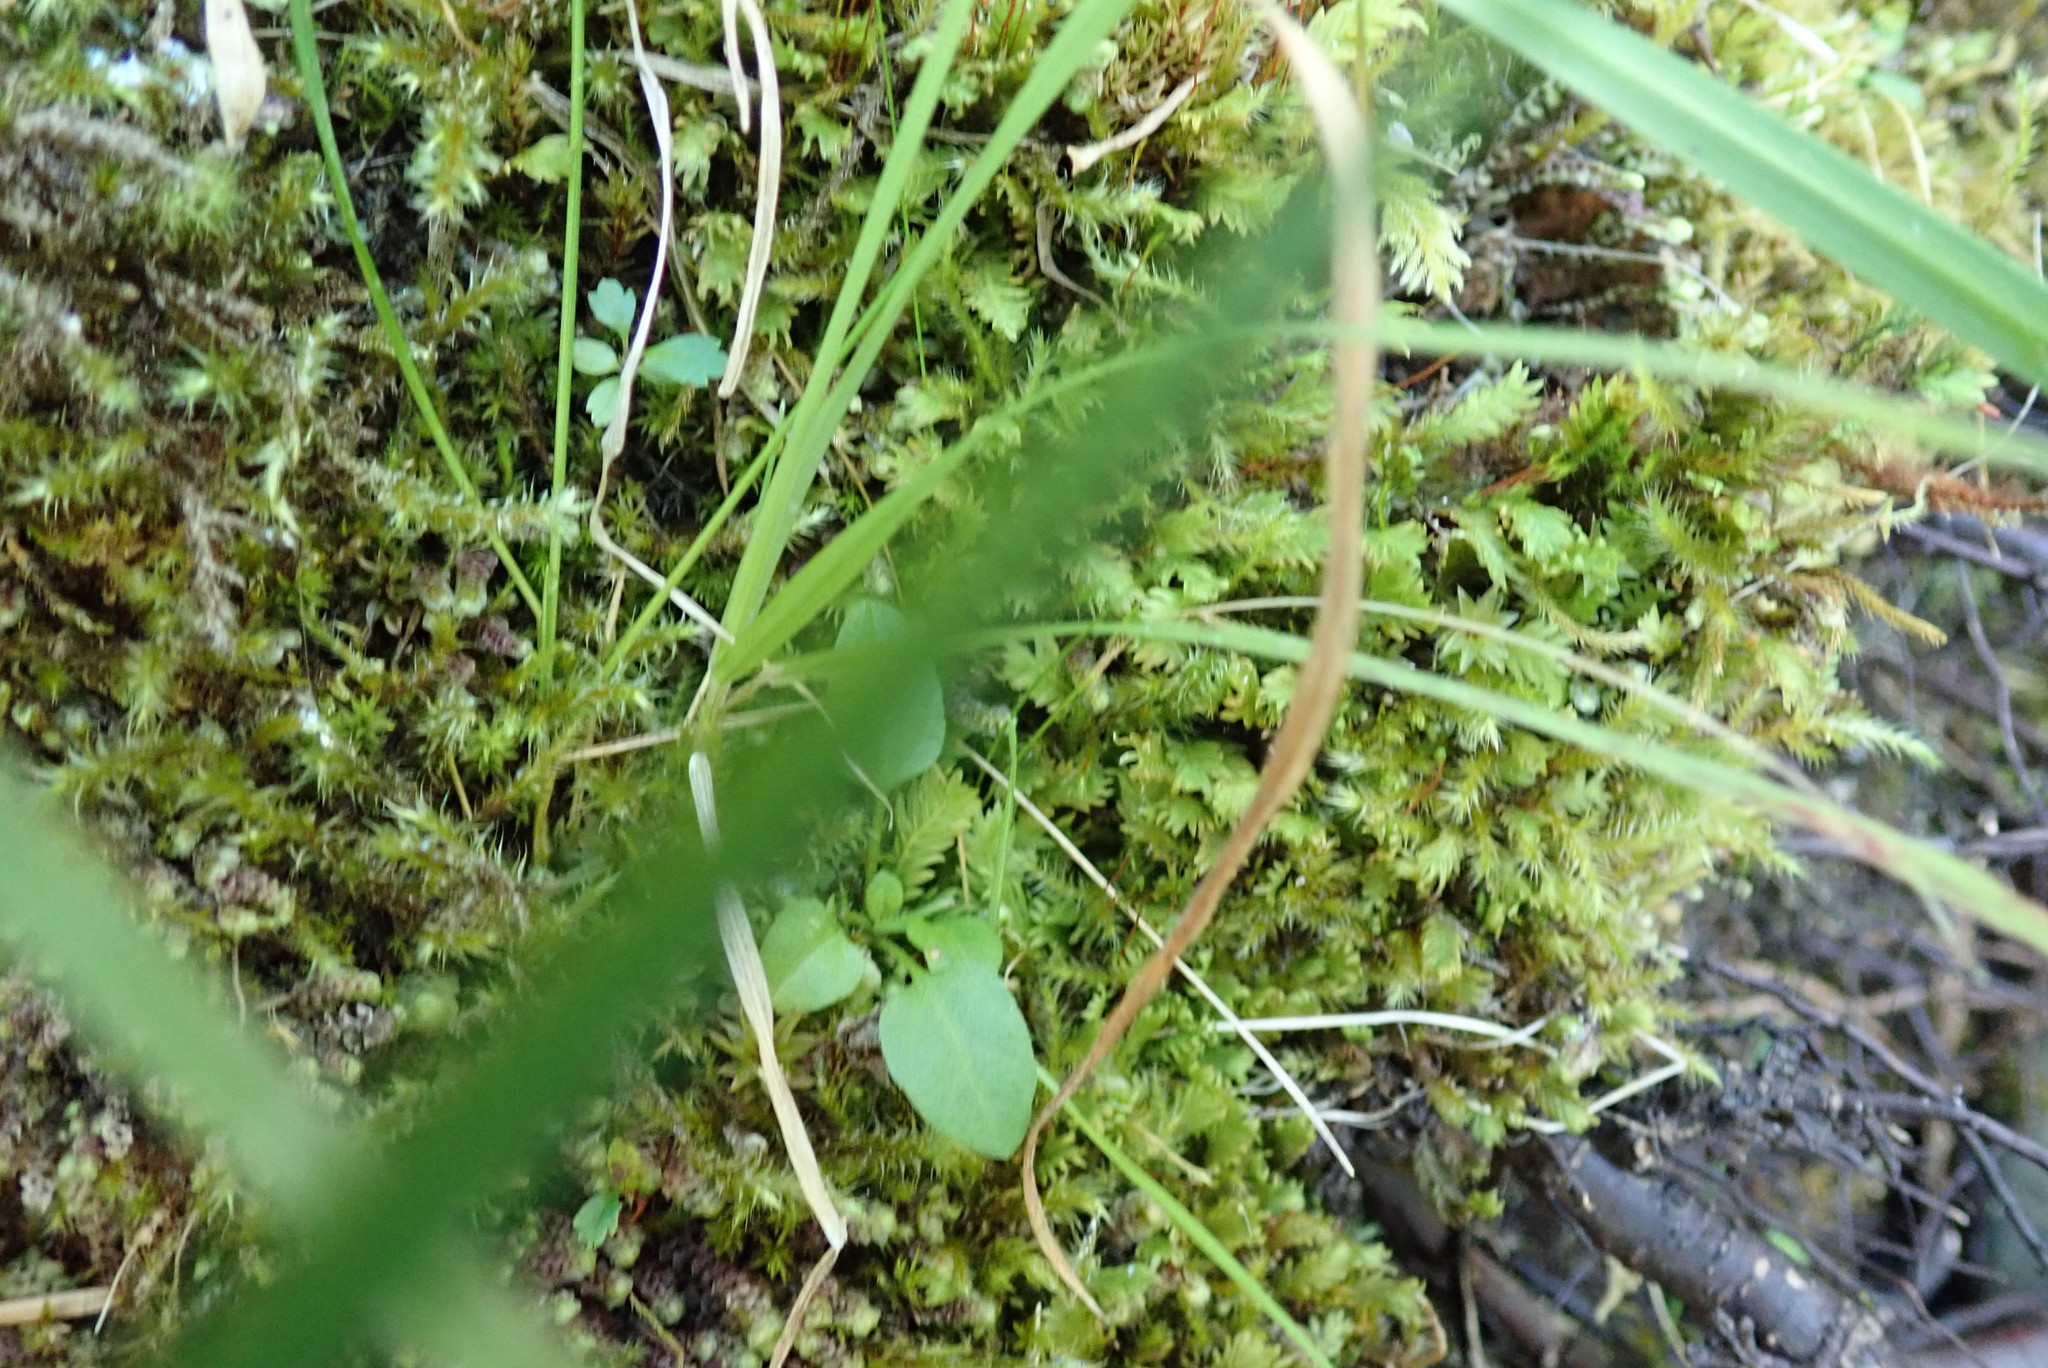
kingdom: Plantae
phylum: Bryophyta
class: Bryopsida
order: Dicranales
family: Fissidentaceae
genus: Fissidens
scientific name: Fissidens adianthoides
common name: Maidenhair pocket moss
